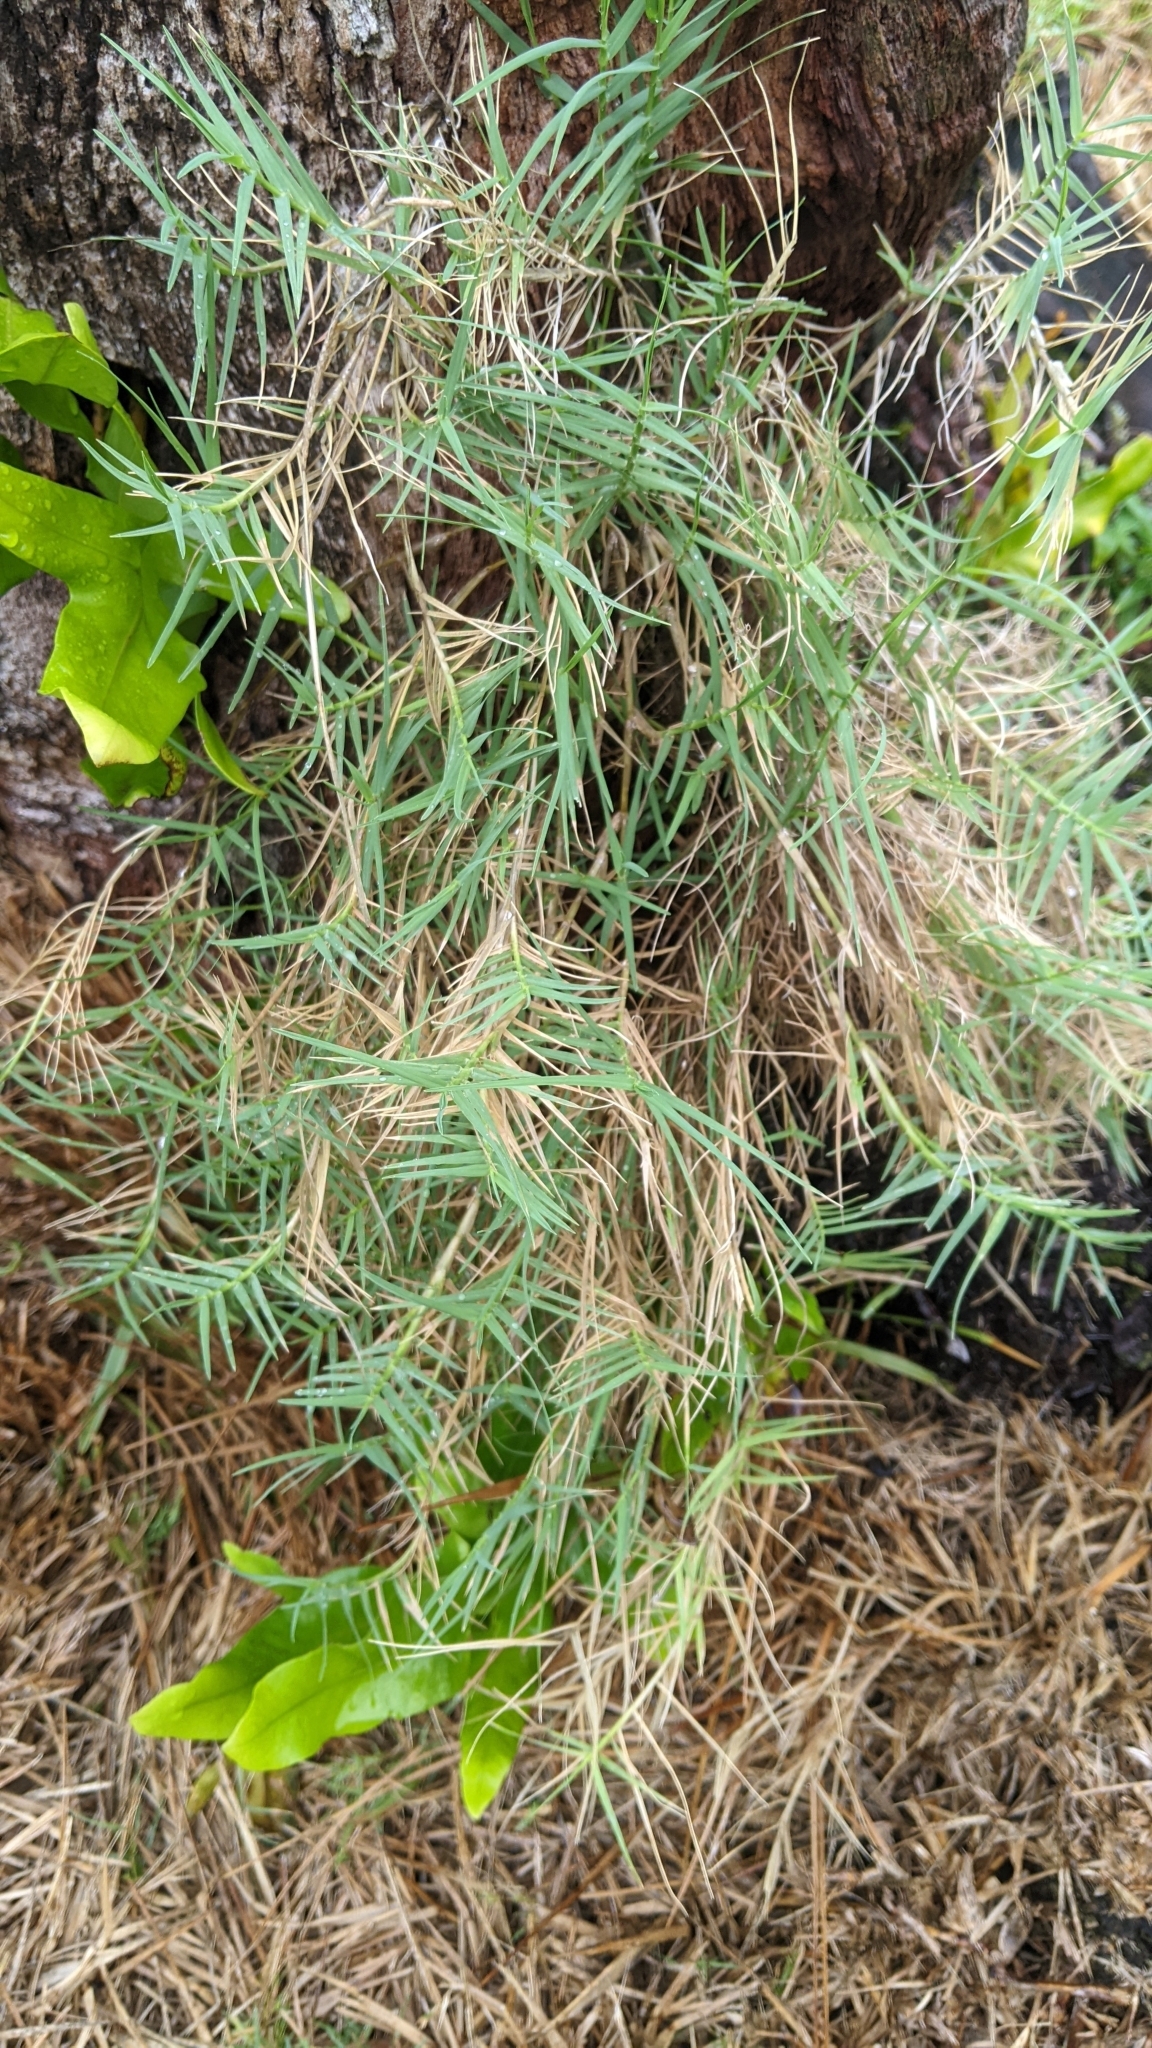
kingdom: Plantae
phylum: Tracheophyta
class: Liliopsida
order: Poales
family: Poaceae
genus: Cynodon
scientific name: Cynodon dactylon
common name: Bermuda grass
